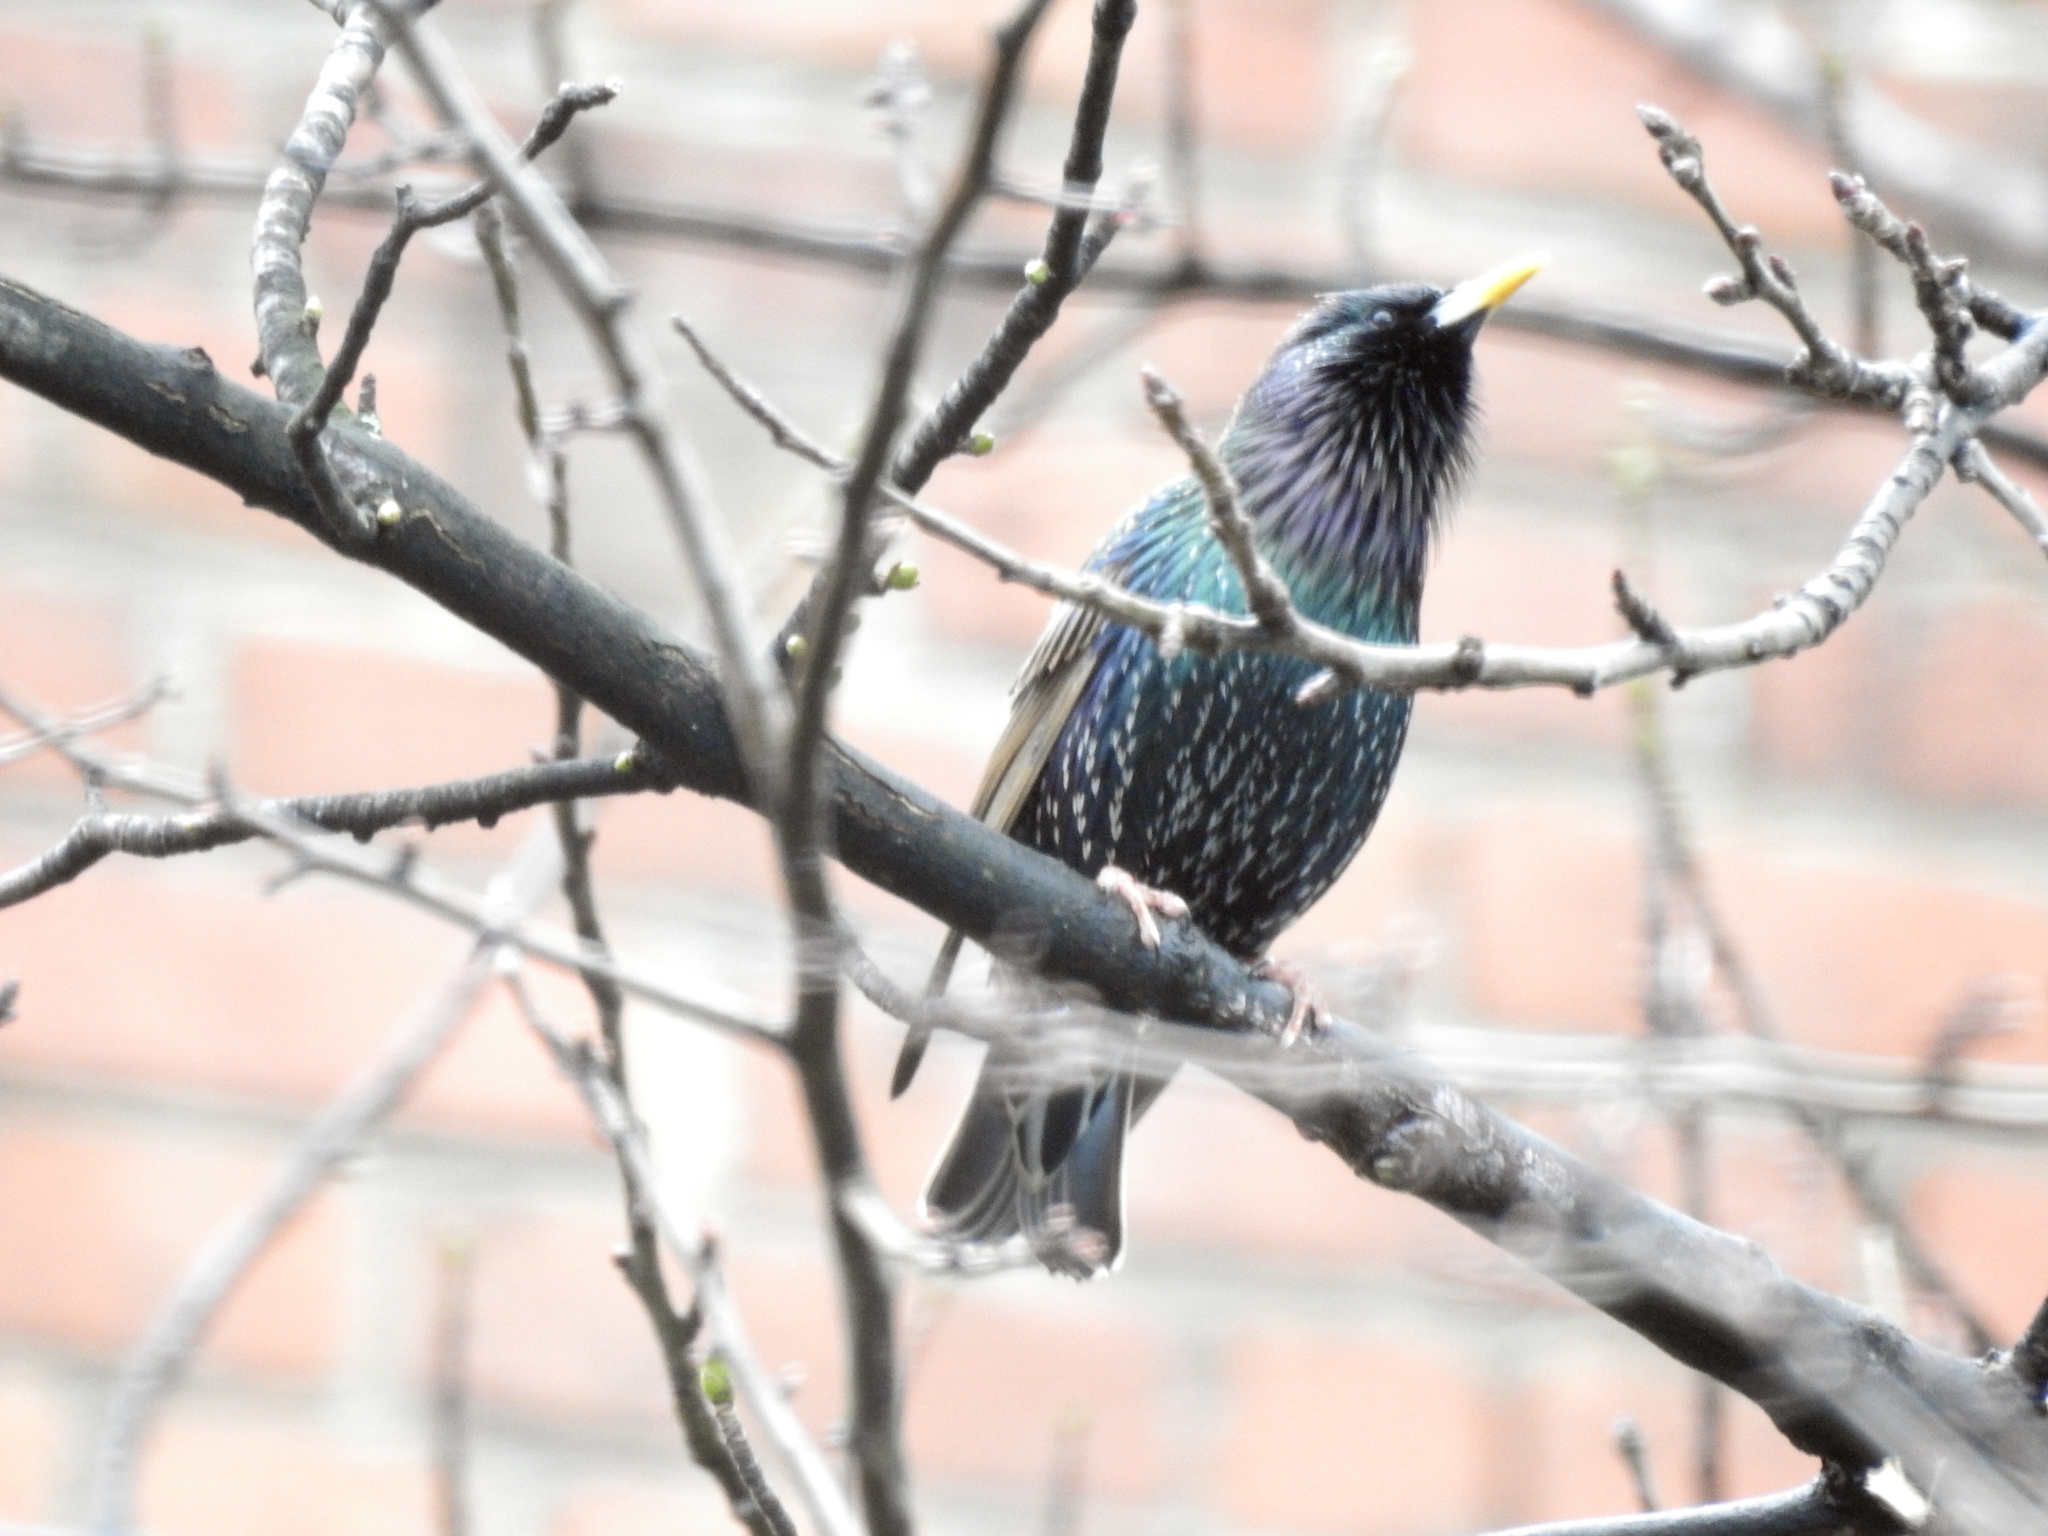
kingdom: Animalia
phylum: Chordata
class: Aves
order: Passeriformes
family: Sturnidae
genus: Sturnus
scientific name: Sturnus vulgaris
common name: Common starling
